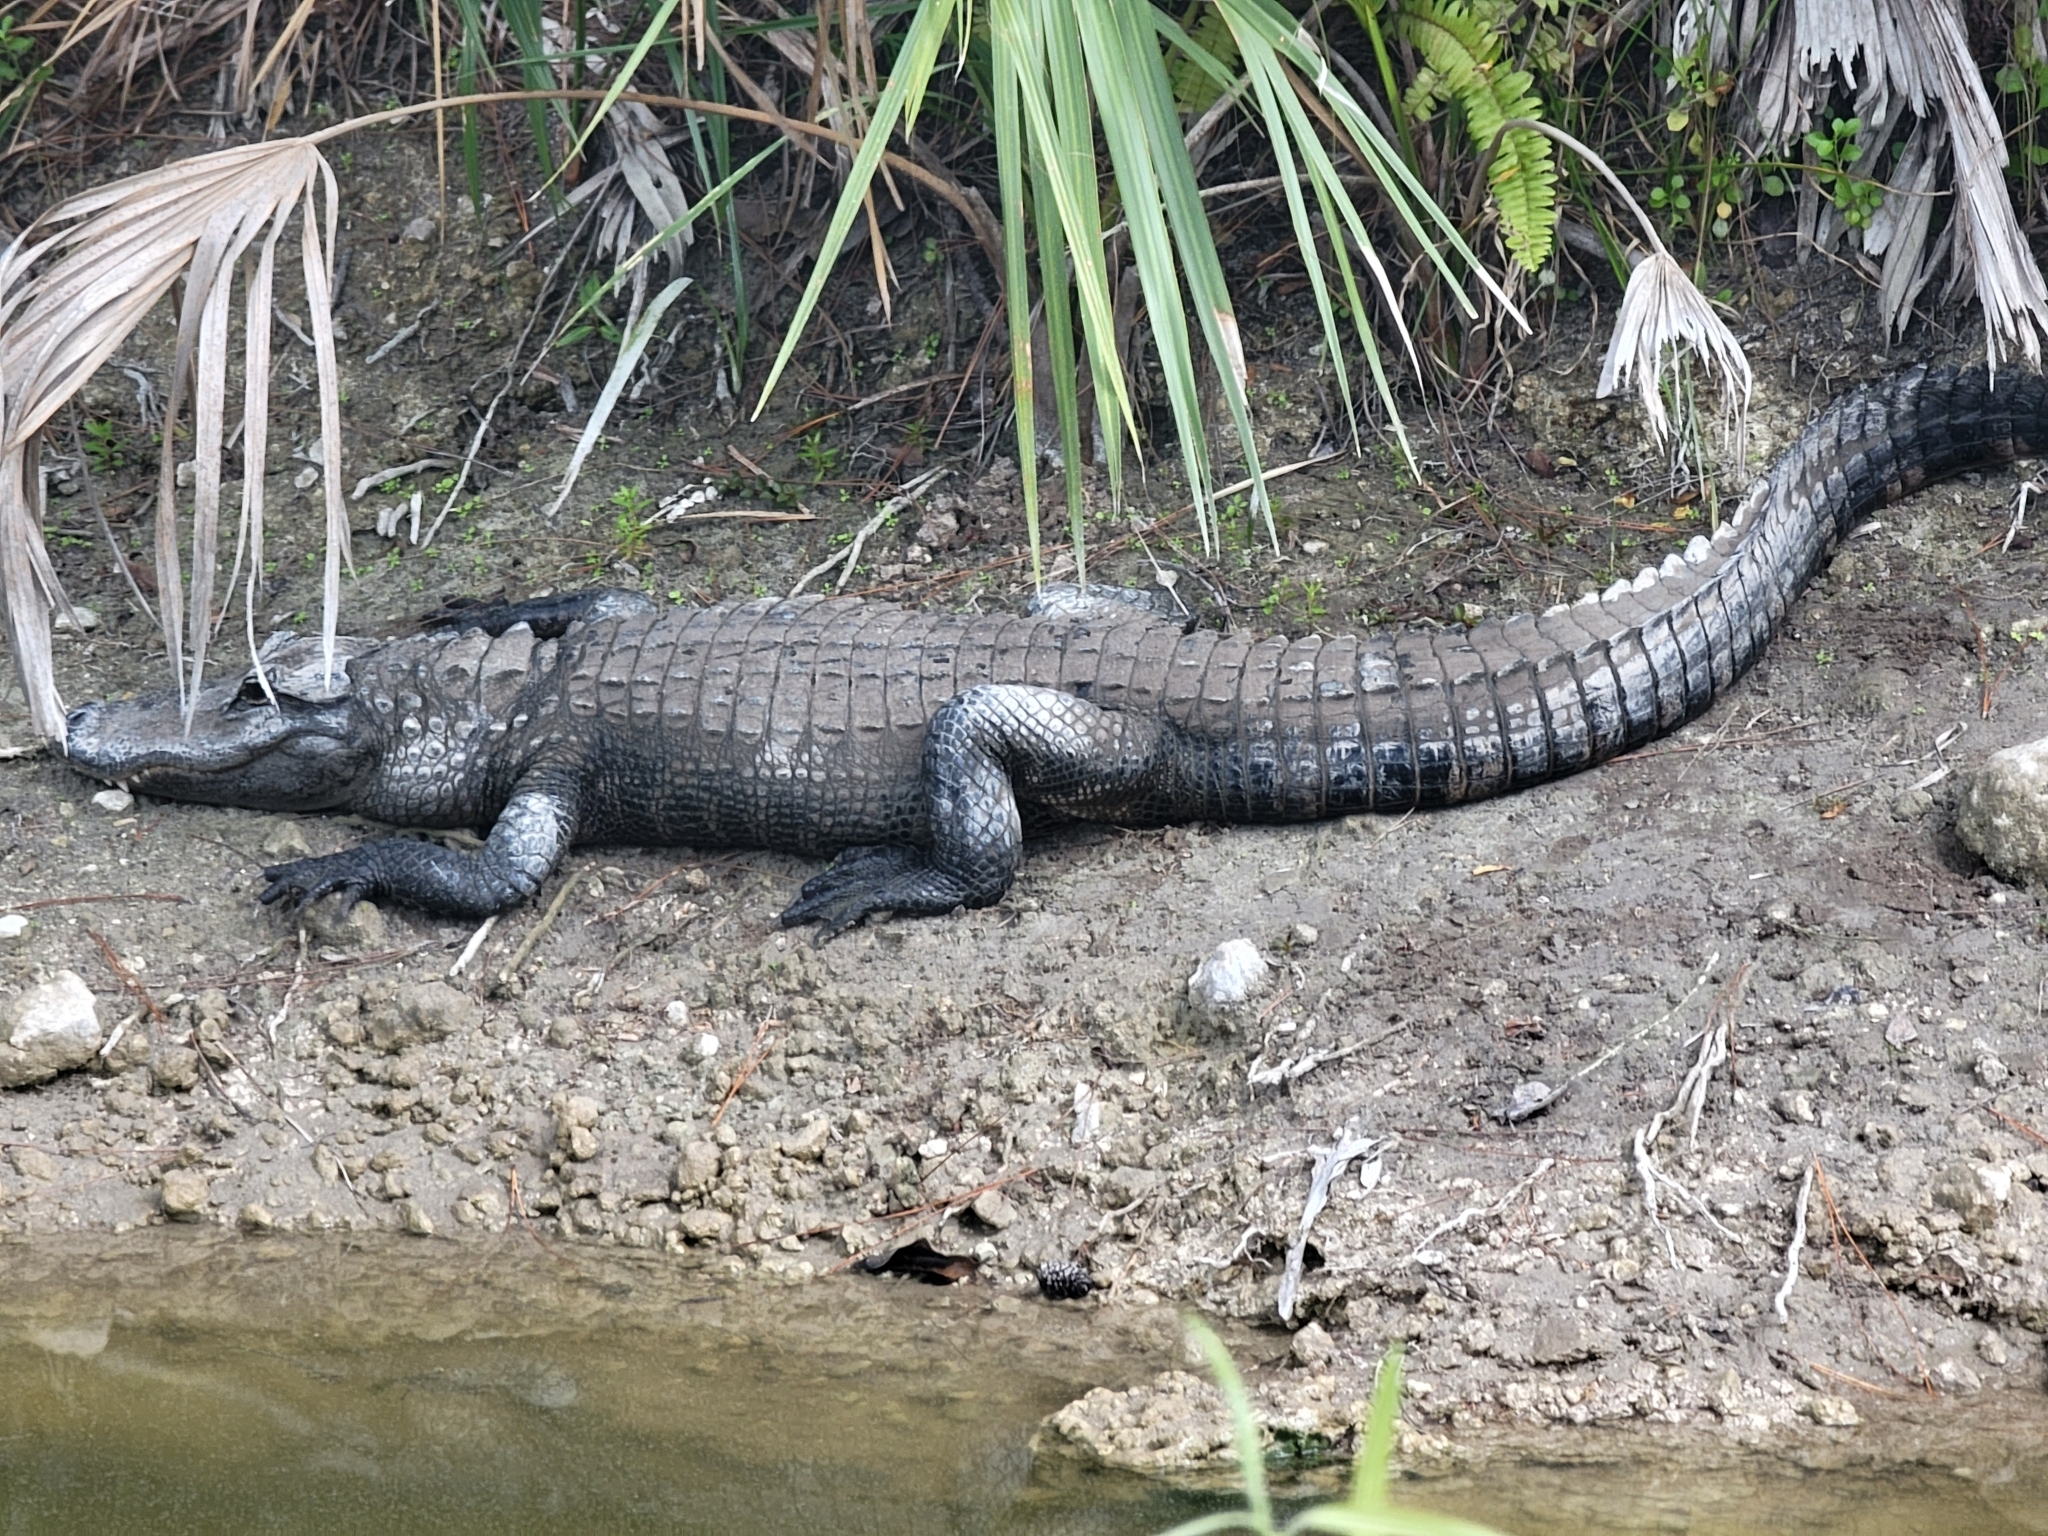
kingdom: Animalia
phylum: Chordata
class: Crocodylia
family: Alligatoridae
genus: Alligator
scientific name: Alligator mississippiensis
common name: American alligator
